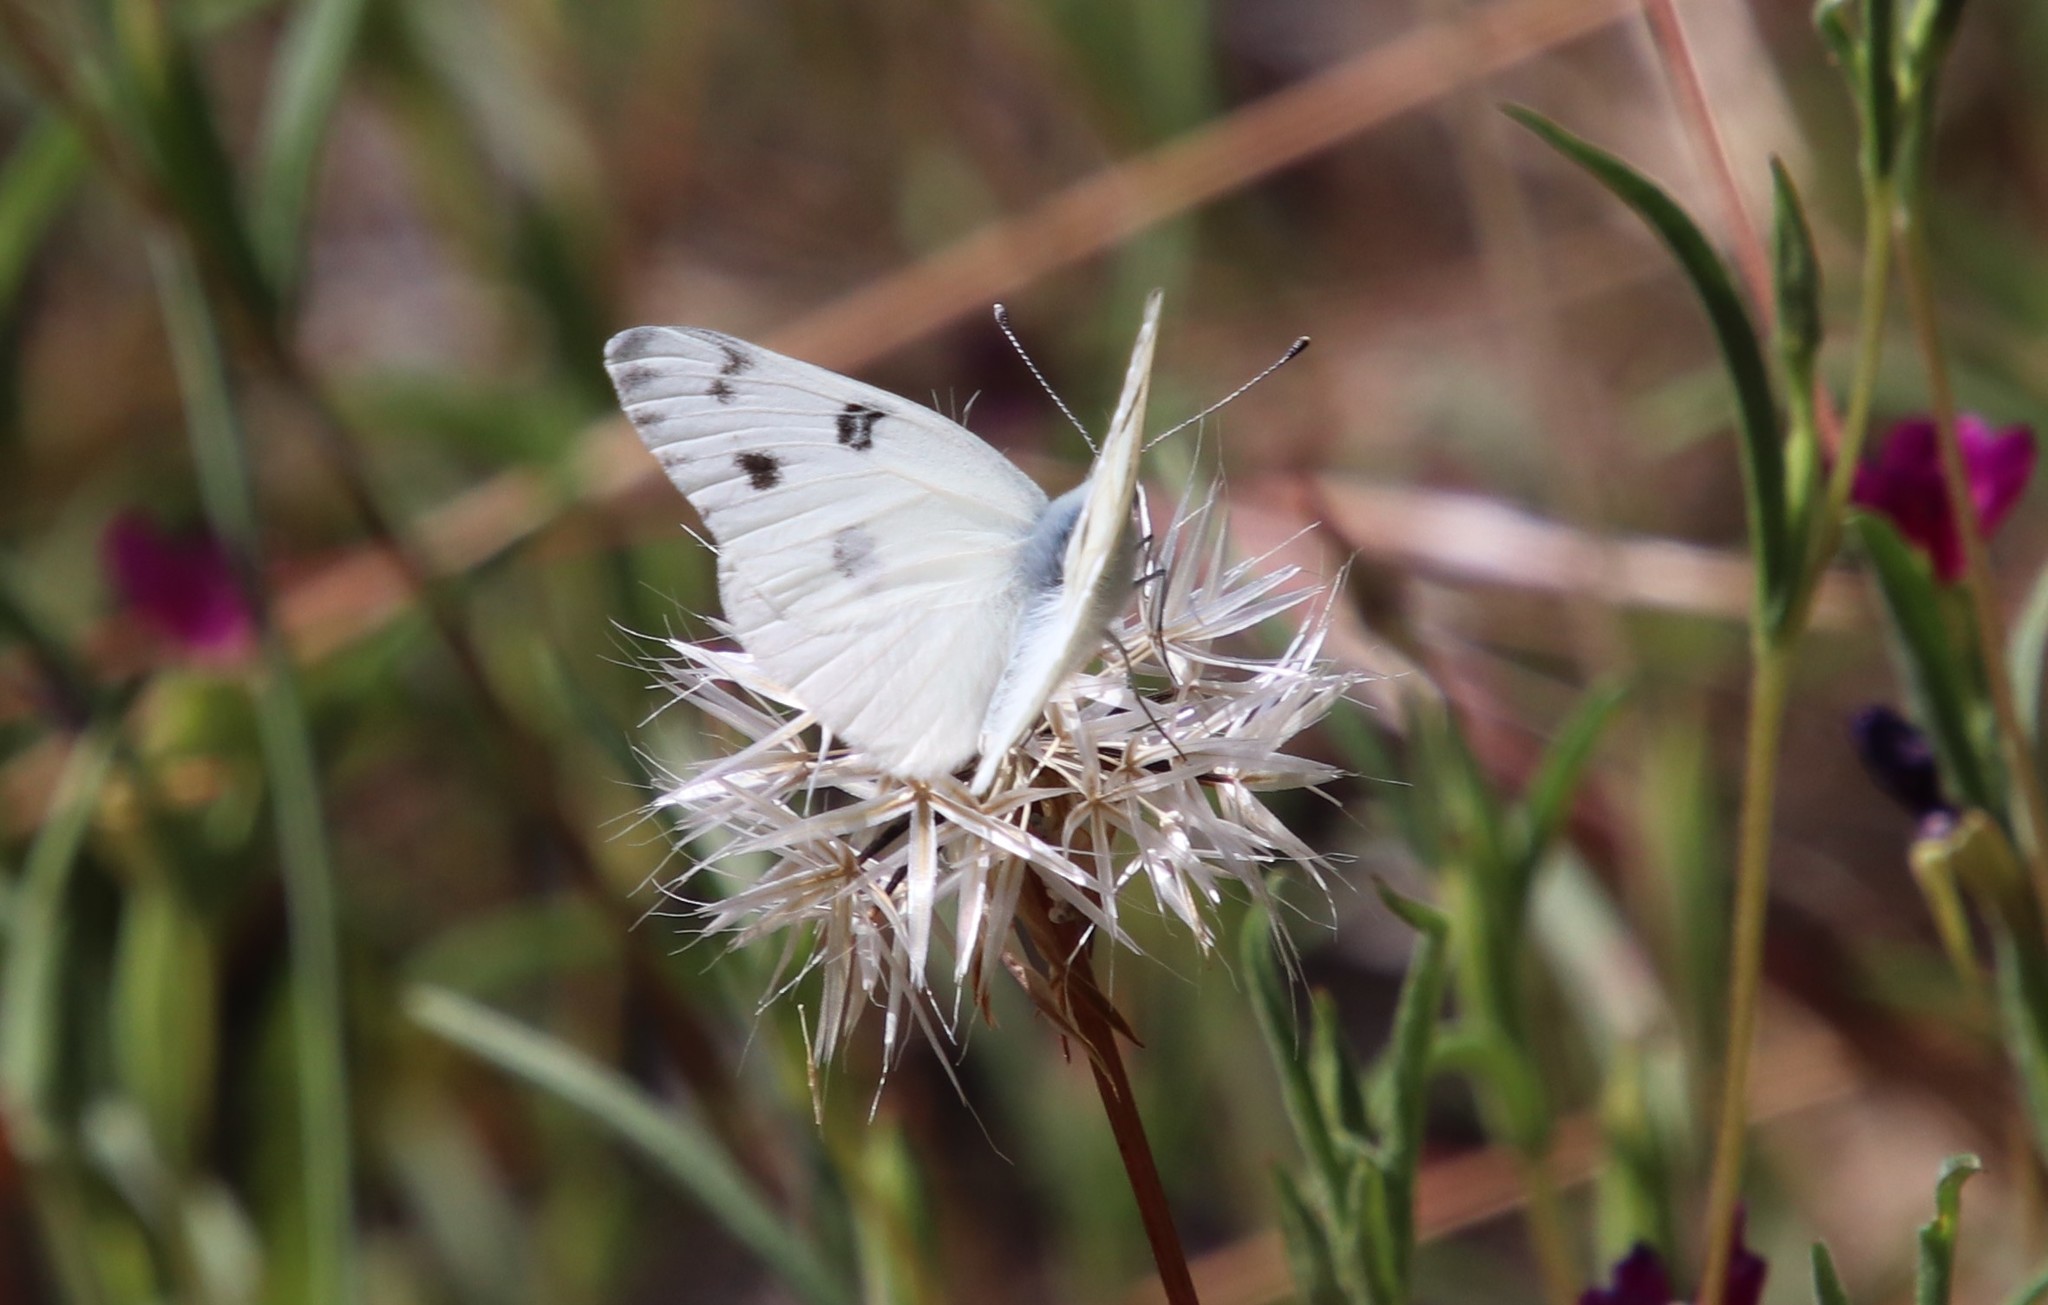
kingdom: Animalia
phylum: Arthropoda
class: Insecta
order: Lepidoptera
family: Pieridae
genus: Pontia
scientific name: Pontia protodice
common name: Checkered white
